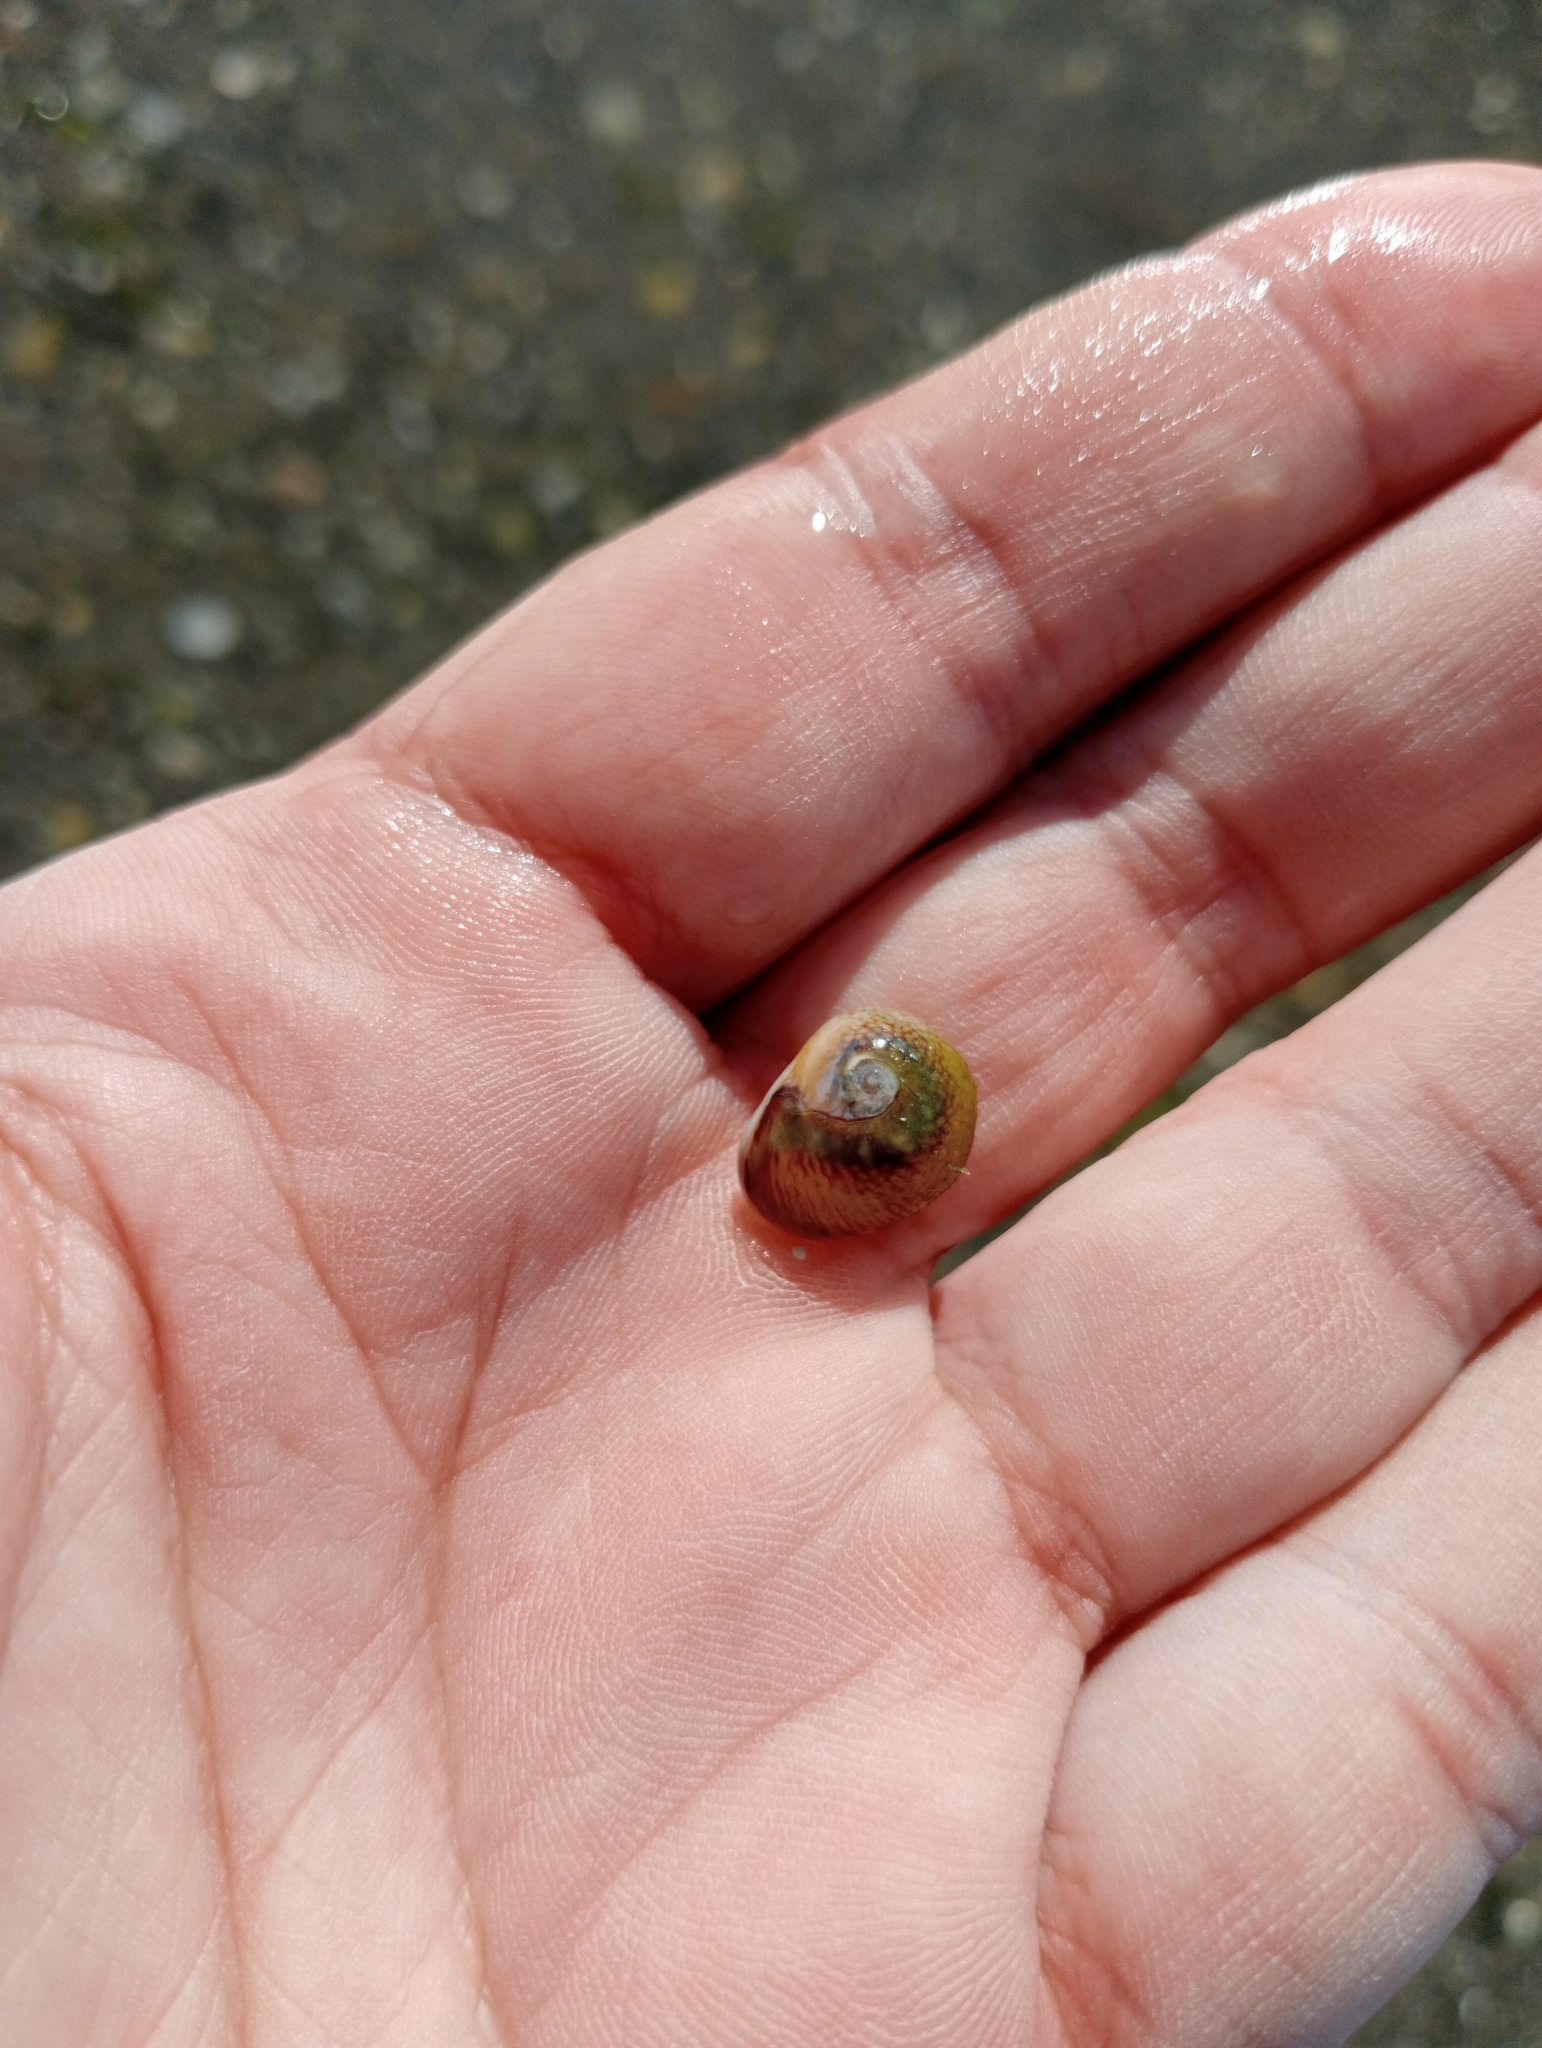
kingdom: Animalia
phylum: Mollusca
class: Gastropoda
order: Neogastropoda
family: Nassariidae
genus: Tritia
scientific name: Tritia neritea
